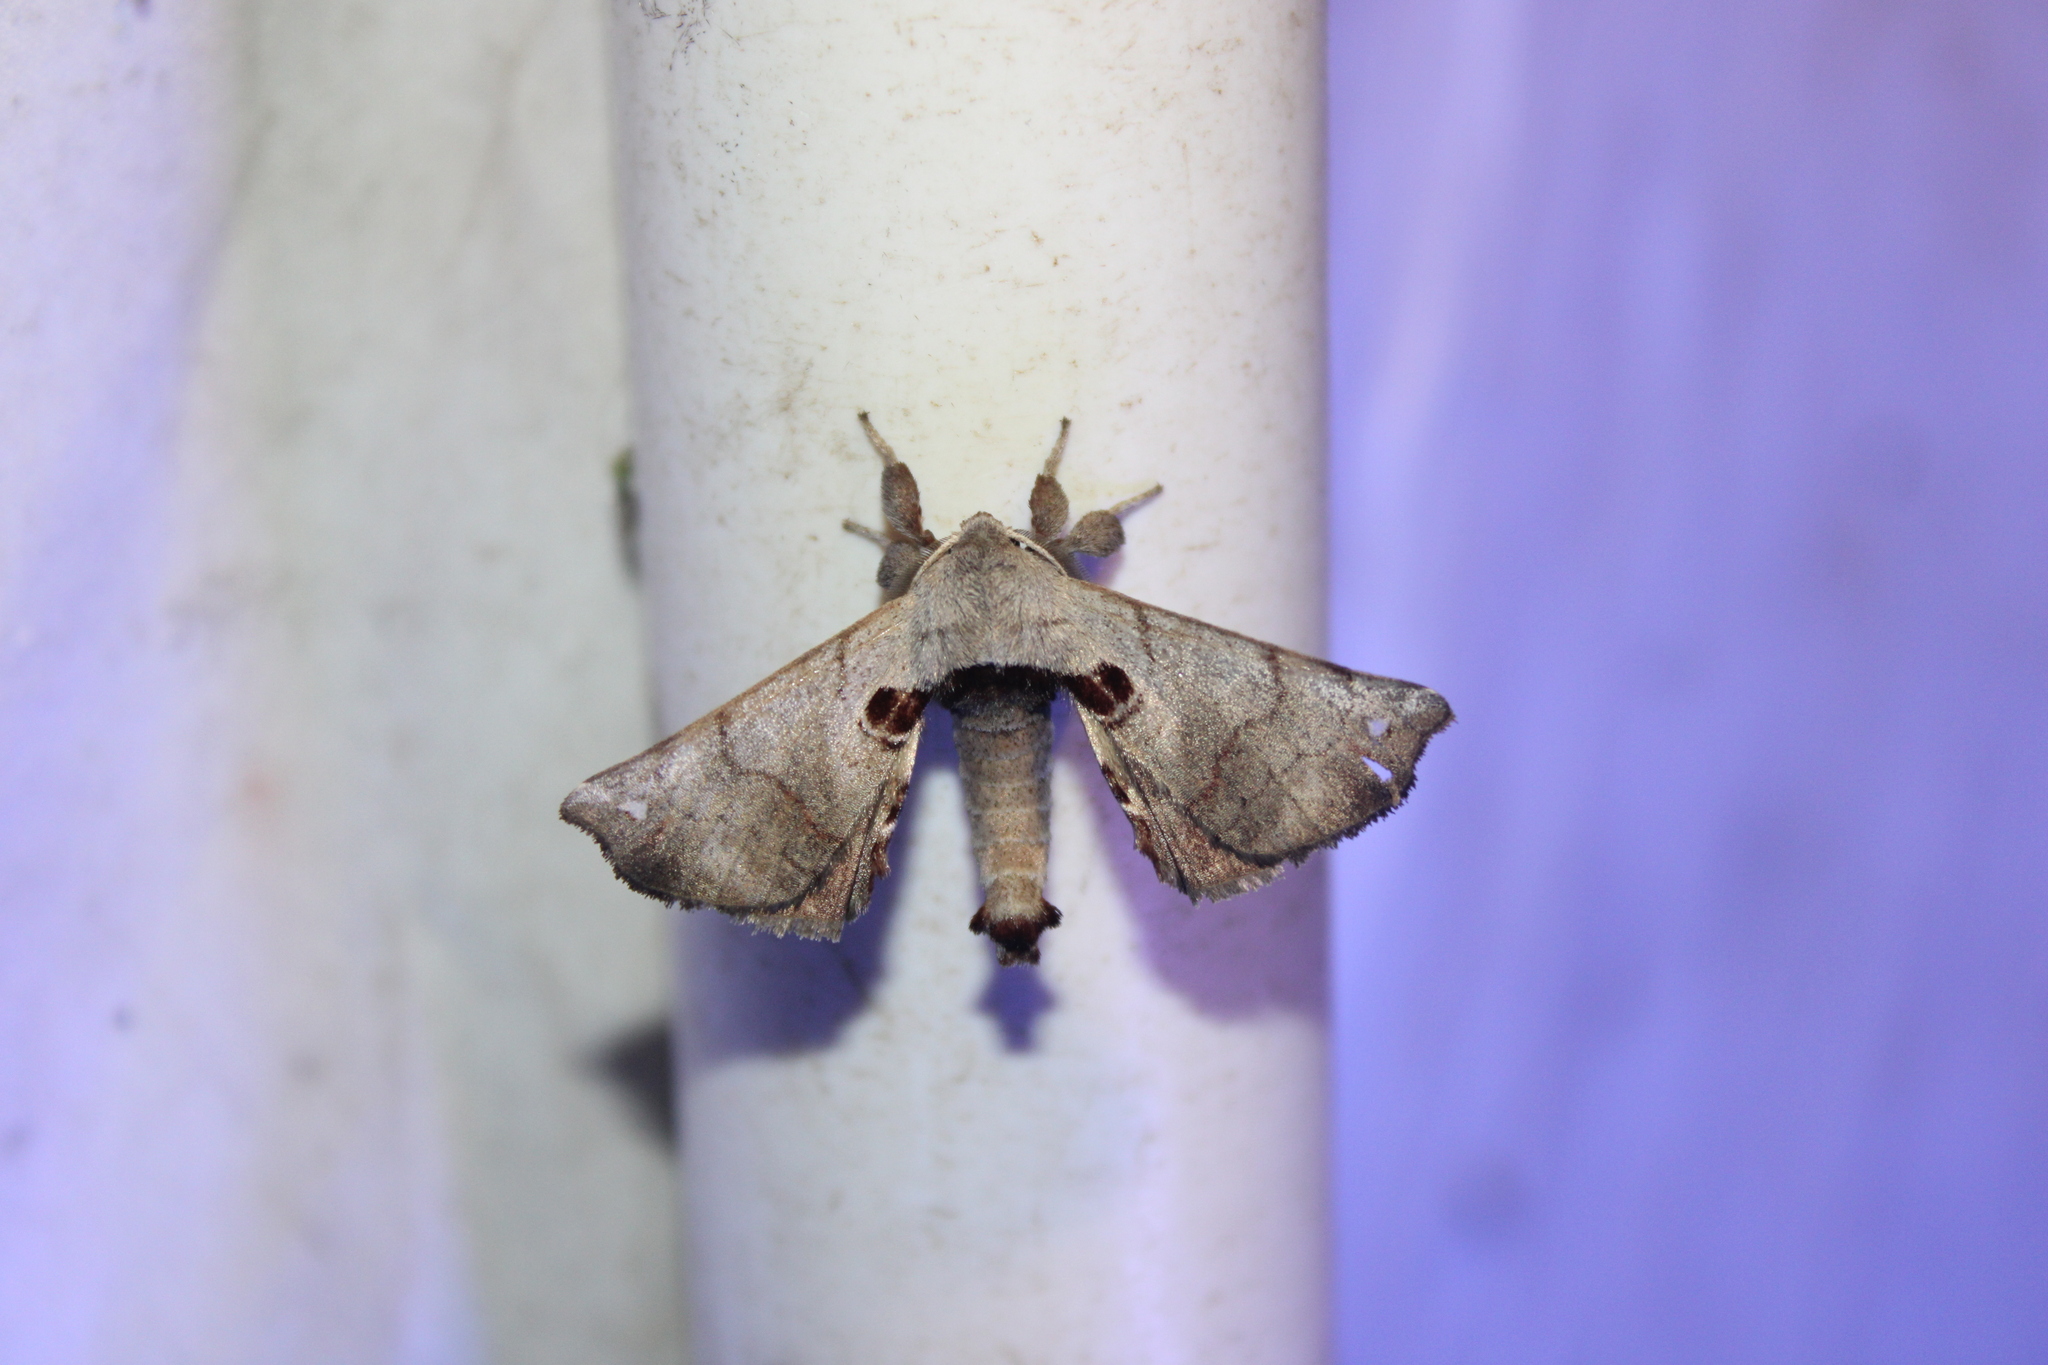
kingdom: Animalia
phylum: Arthropoda
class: Insecta
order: Lepidoptera
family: Apatelodidae
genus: Hygrochroa
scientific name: Hygrochroa Apatelodes torrefacta
